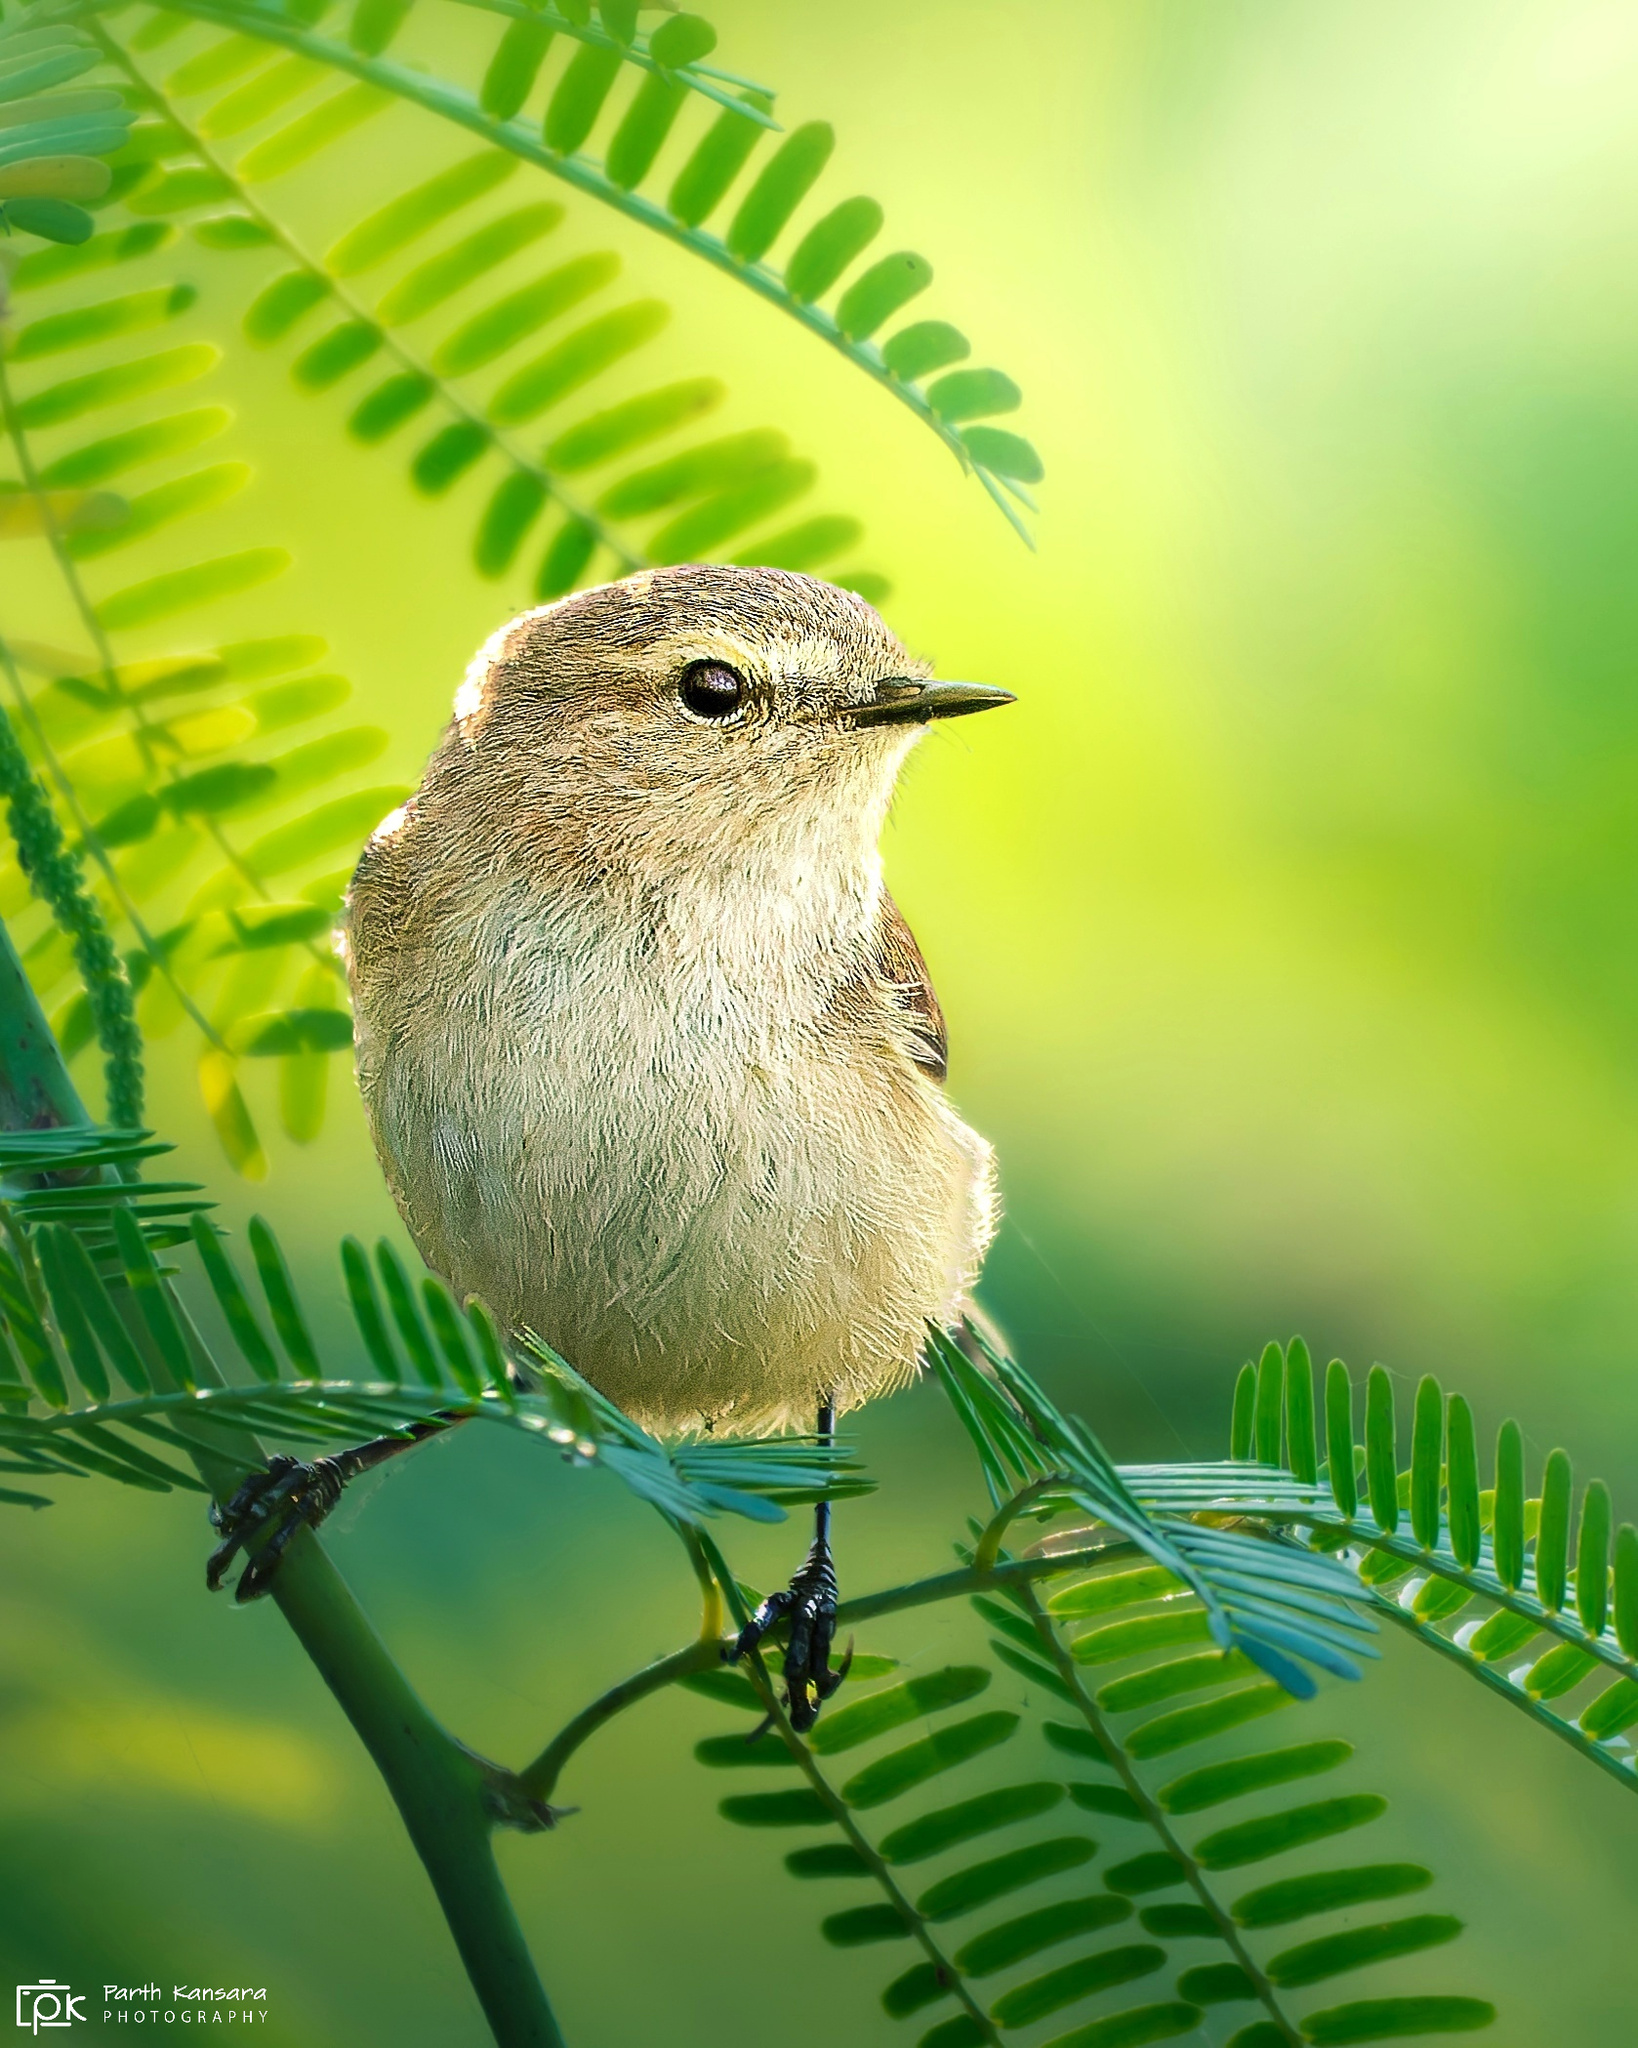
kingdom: Animalia
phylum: Chordata
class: Aves
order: Passeriformes
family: Phylloscopidae
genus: Phylloscopus
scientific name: Phylloscopus collybita
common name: Common chiffchaff
